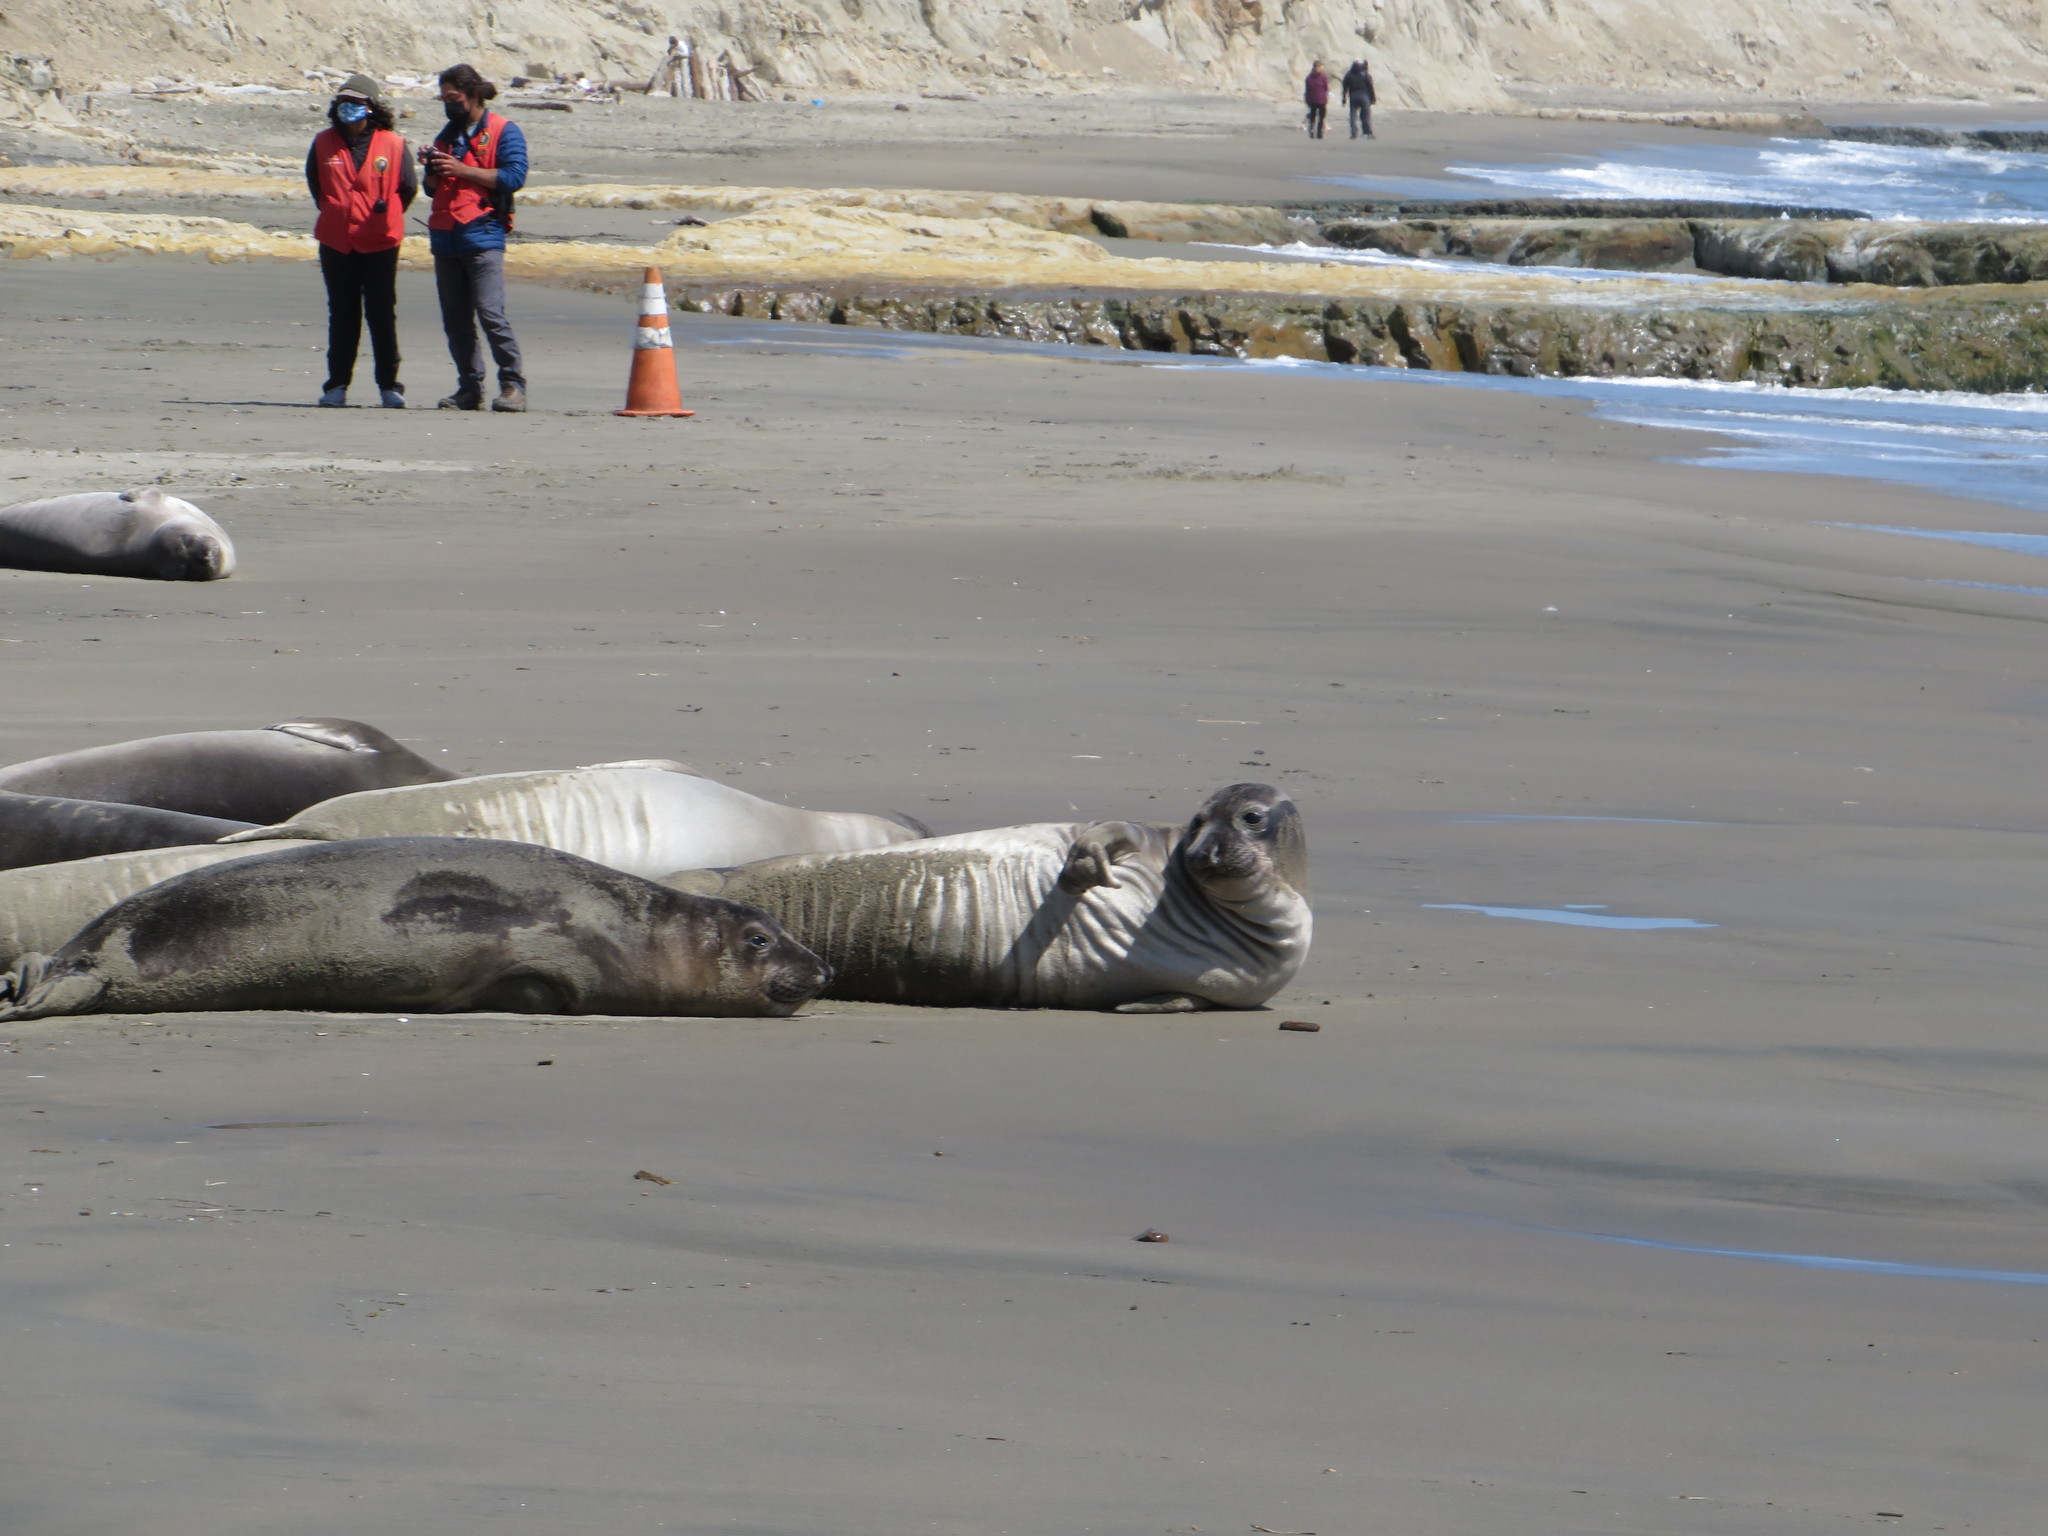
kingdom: Animalia
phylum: Chordata
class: Mammalia
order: Carnivora
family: Phocidae
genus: Mirounga
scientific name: Mirounga angustirostris
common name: Northern elephant seal
